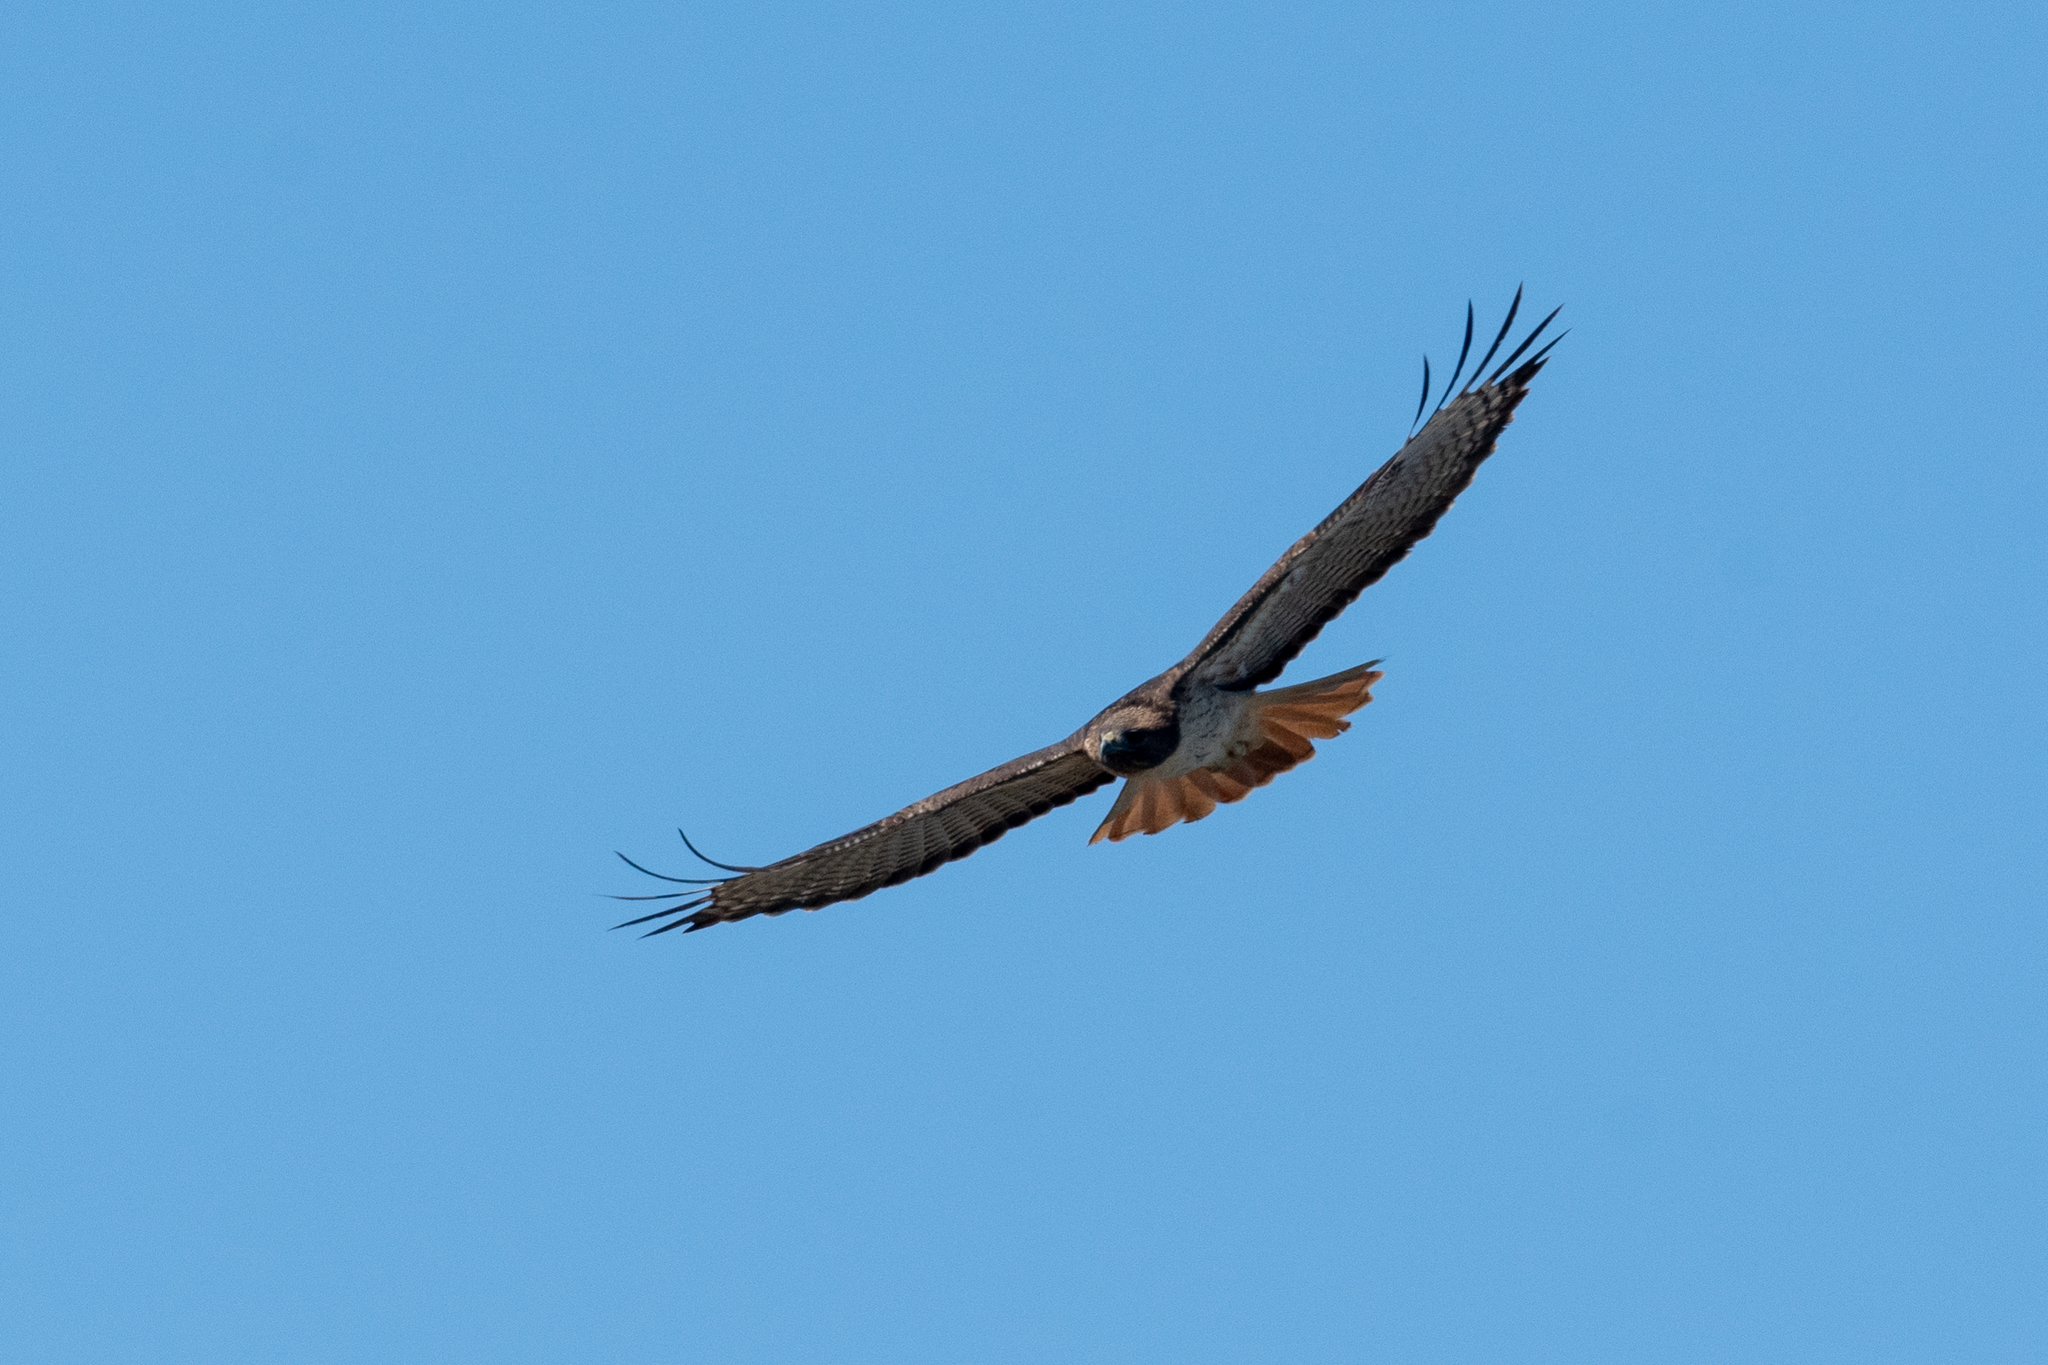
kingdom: Animalia
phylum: Chordata
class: Aves
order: Accipitriformes
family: Accipitridae
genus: Buteo
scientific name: Buteo jamaicensis
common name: Red-tailed hawk
